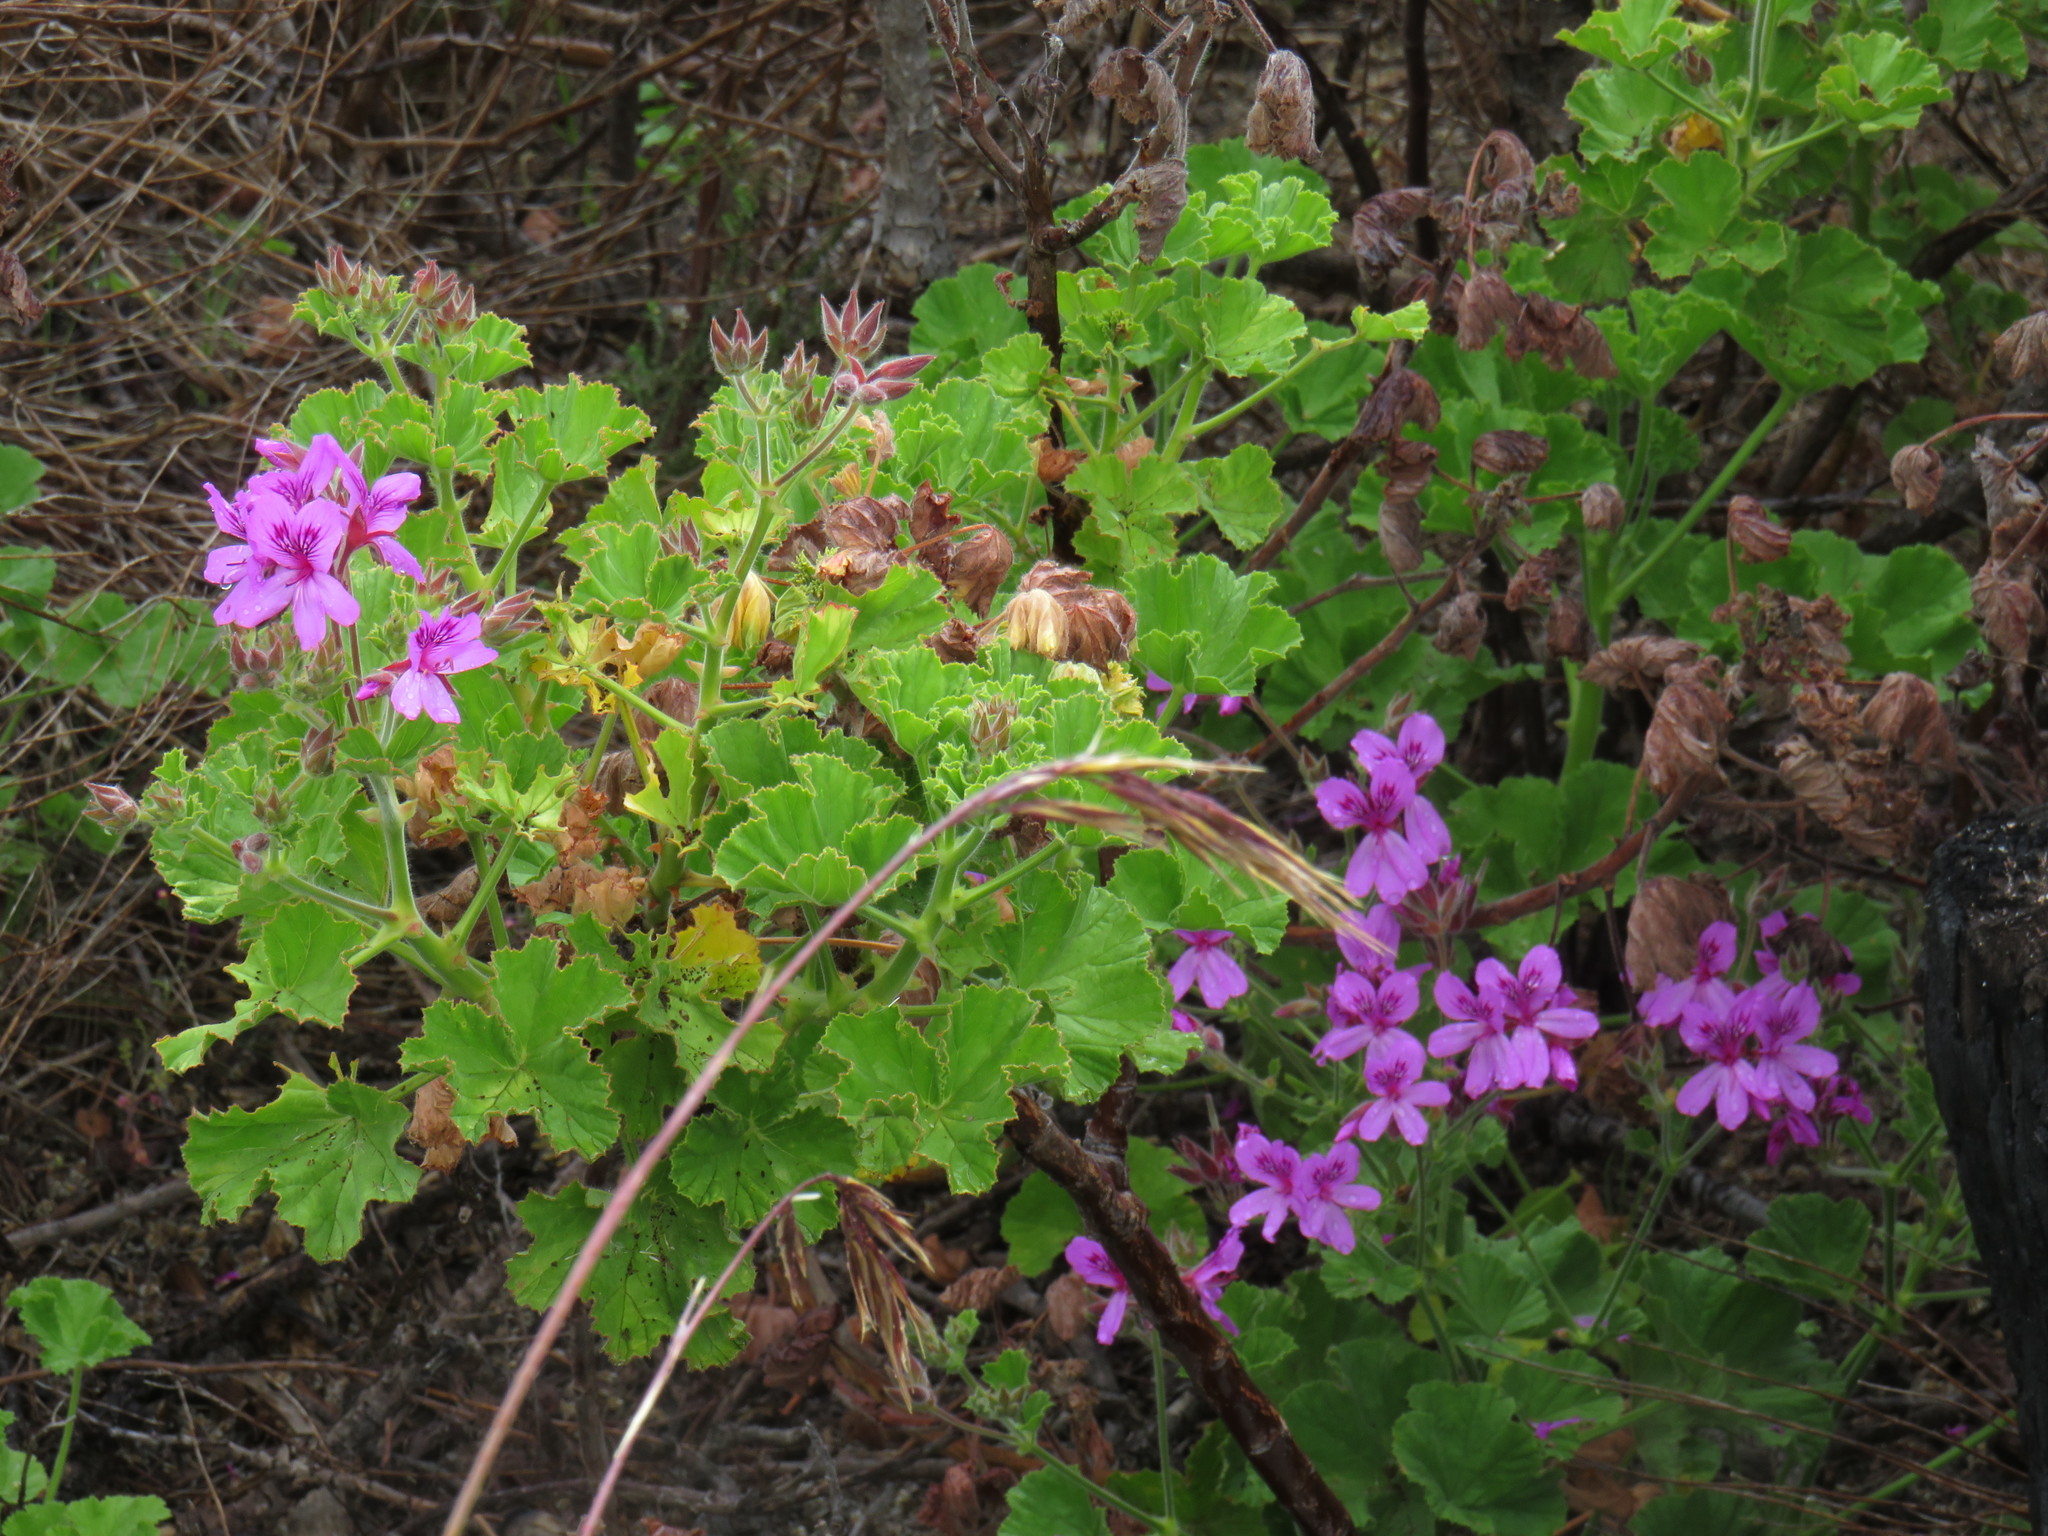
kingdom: Plantae
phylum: Tracheophyta
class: Magnoliopsida
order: Geraniales
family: Geraniaceae
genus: Pelargonium
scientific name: Pelargonium cucullatum
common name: Tree pelargonium
